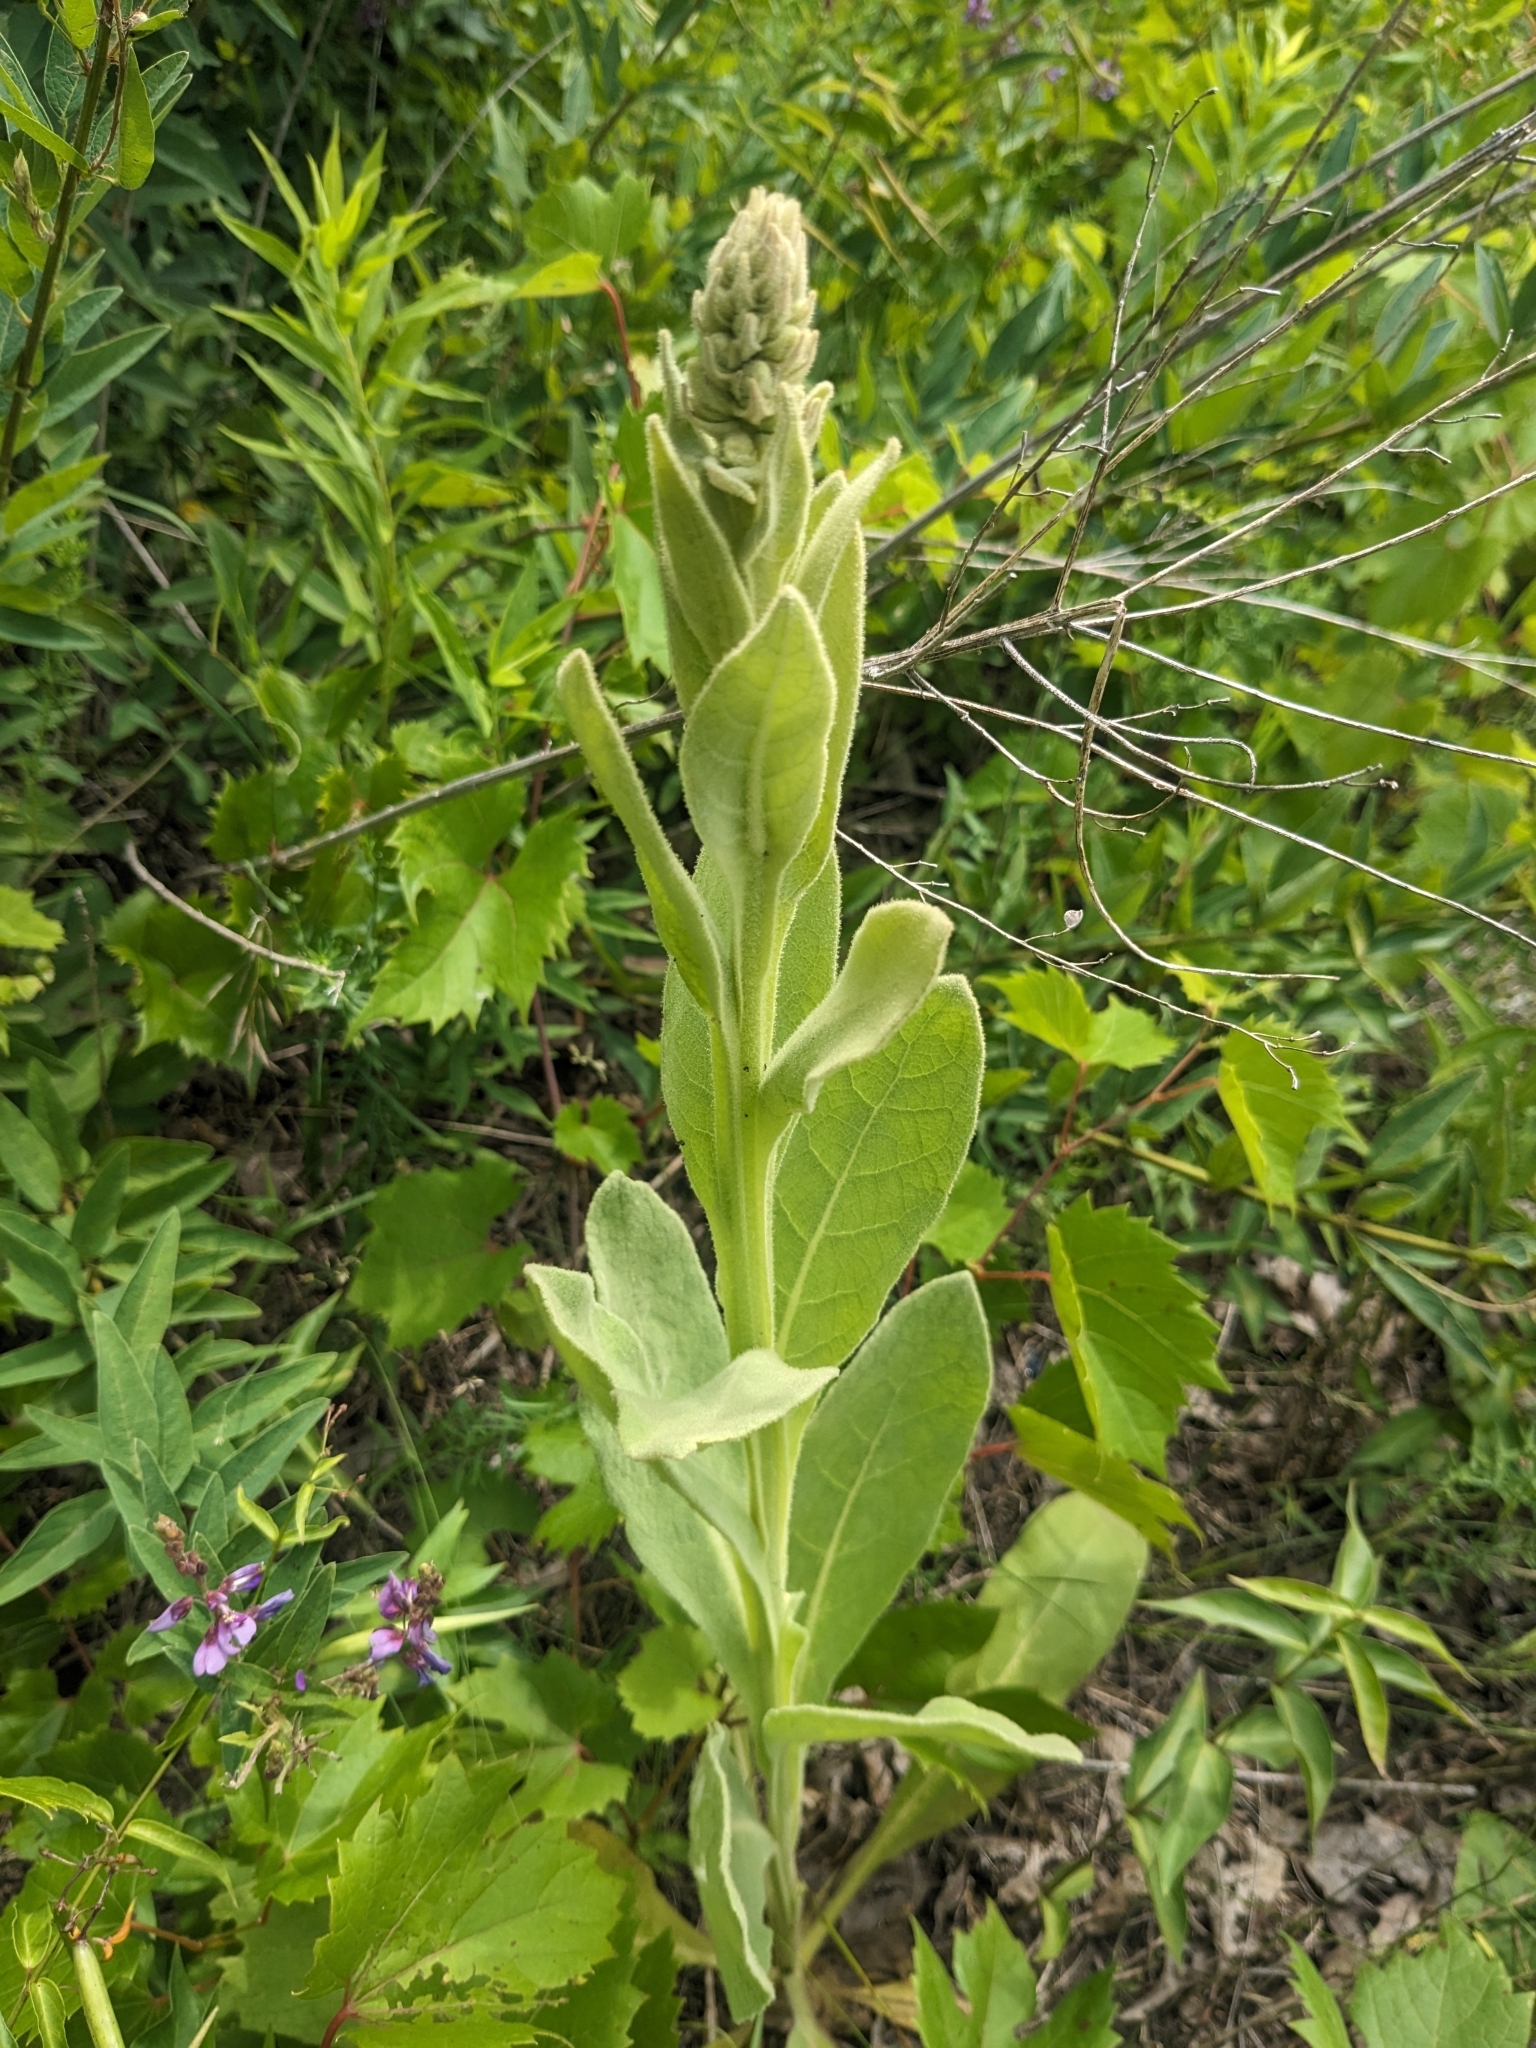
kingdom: Plantae
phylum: Tracheophyta
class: Magnoliopsida
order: Lamiales
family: Scrophulariaceae
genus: Verbascum
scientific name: Verbascum thapsus
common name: Common mullein
